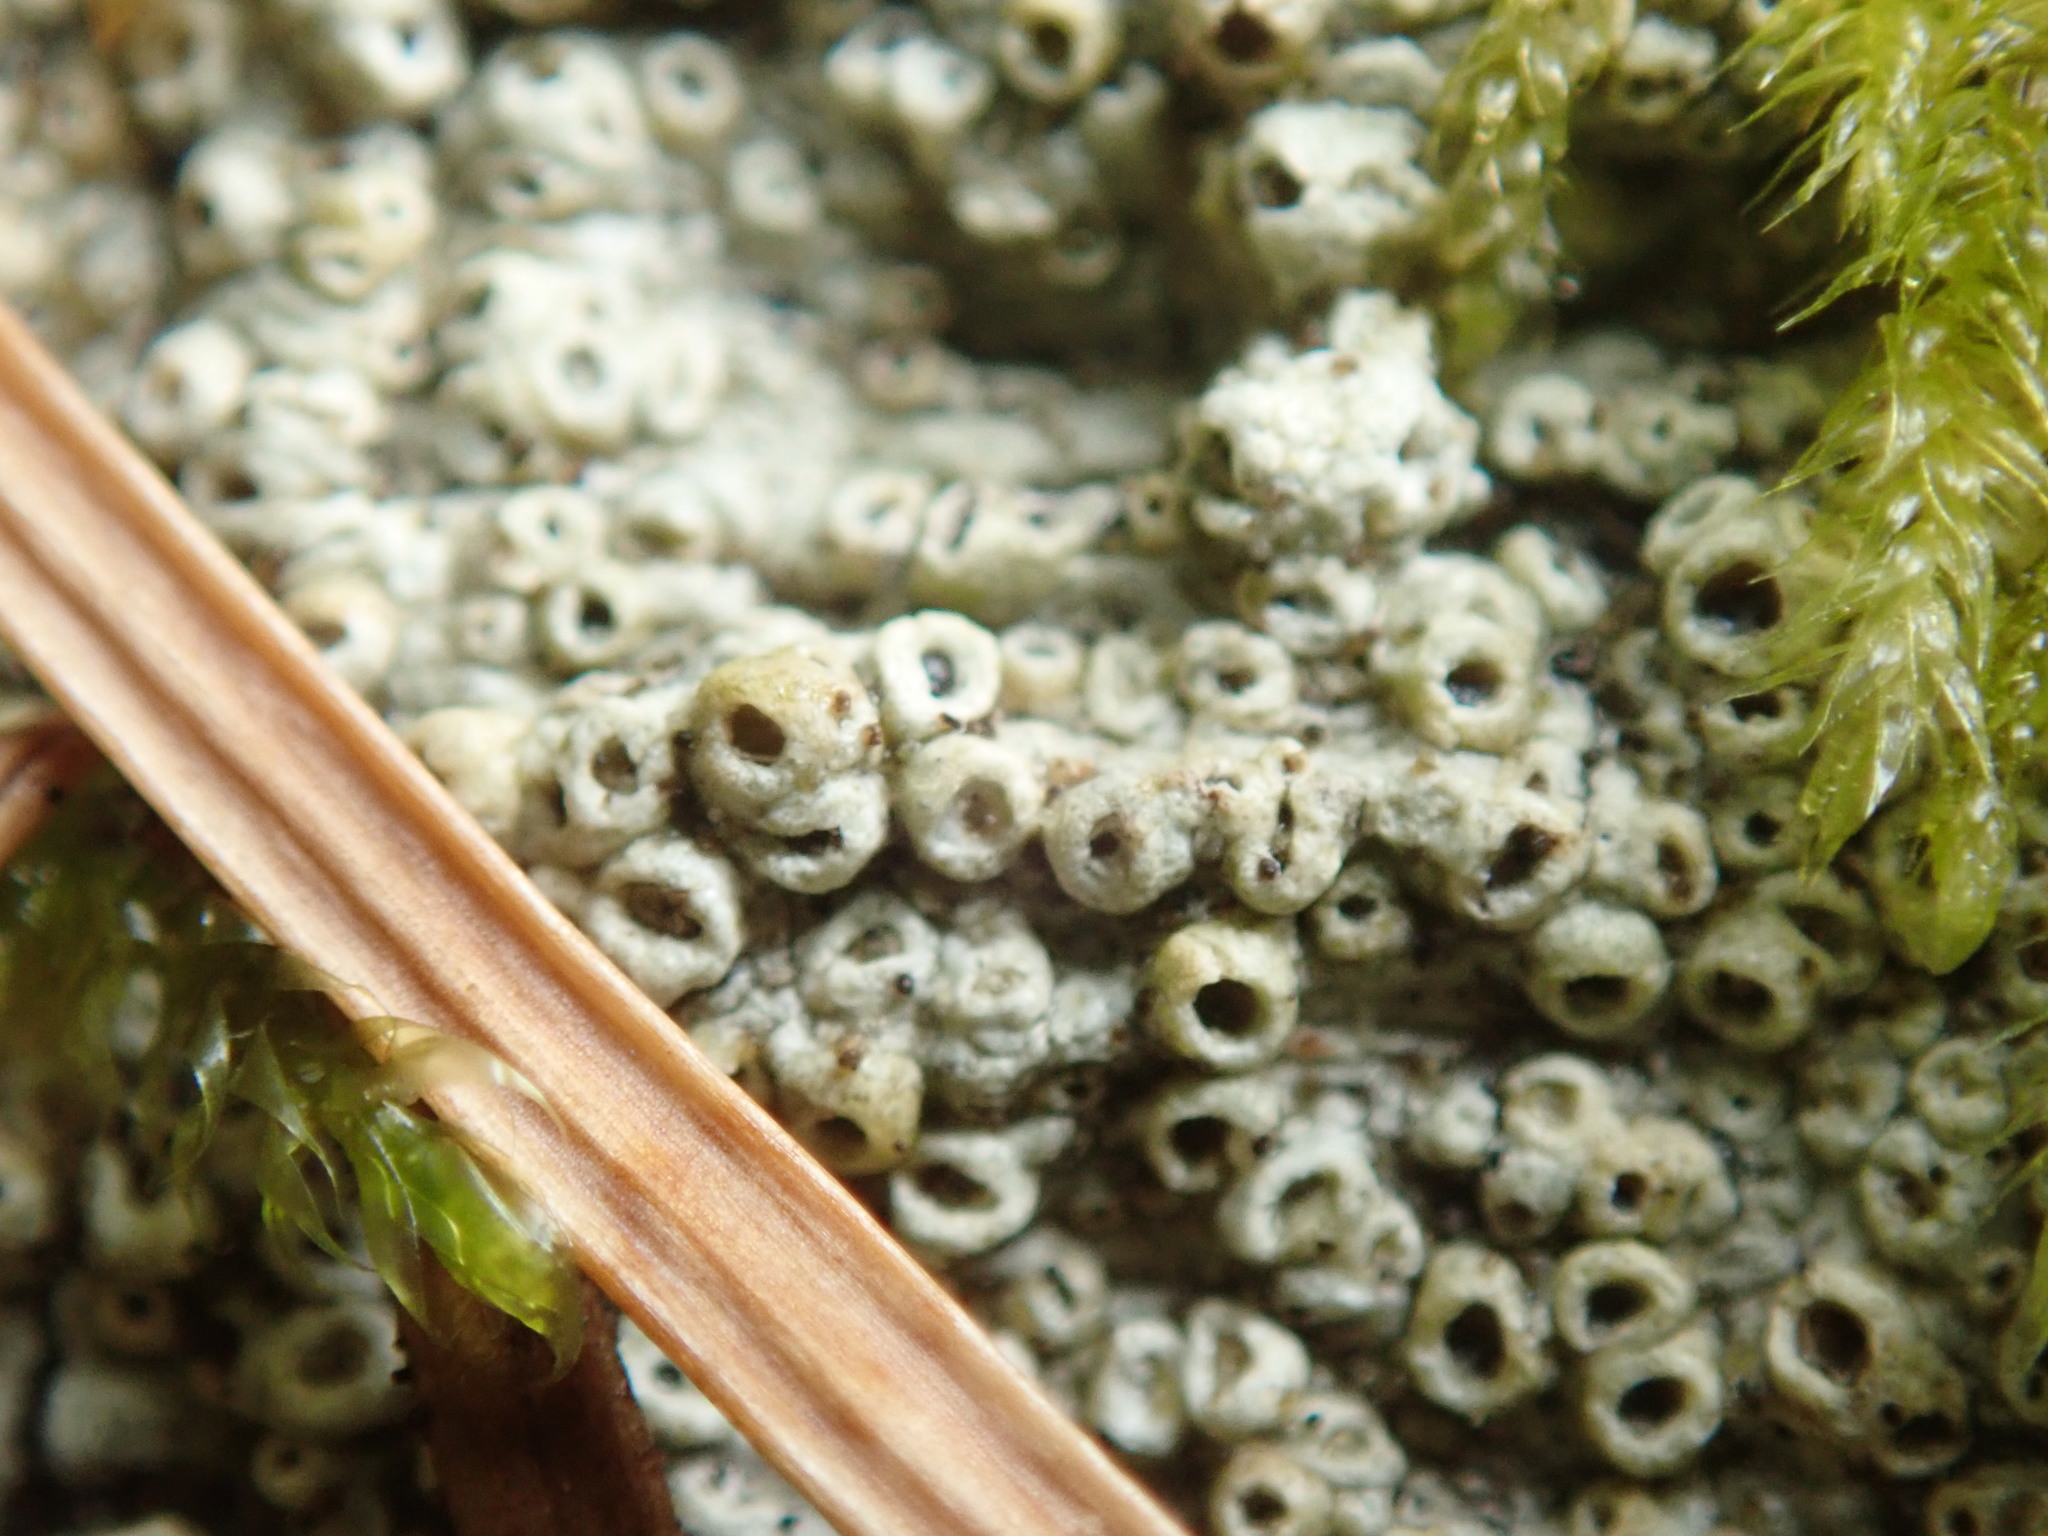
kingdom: Fungi
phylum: Ascomycota
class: Lecanoromycetes
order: Ostropales
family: Graphidaceae
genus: Thelotrema
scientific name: Thelotrema lepadinum
